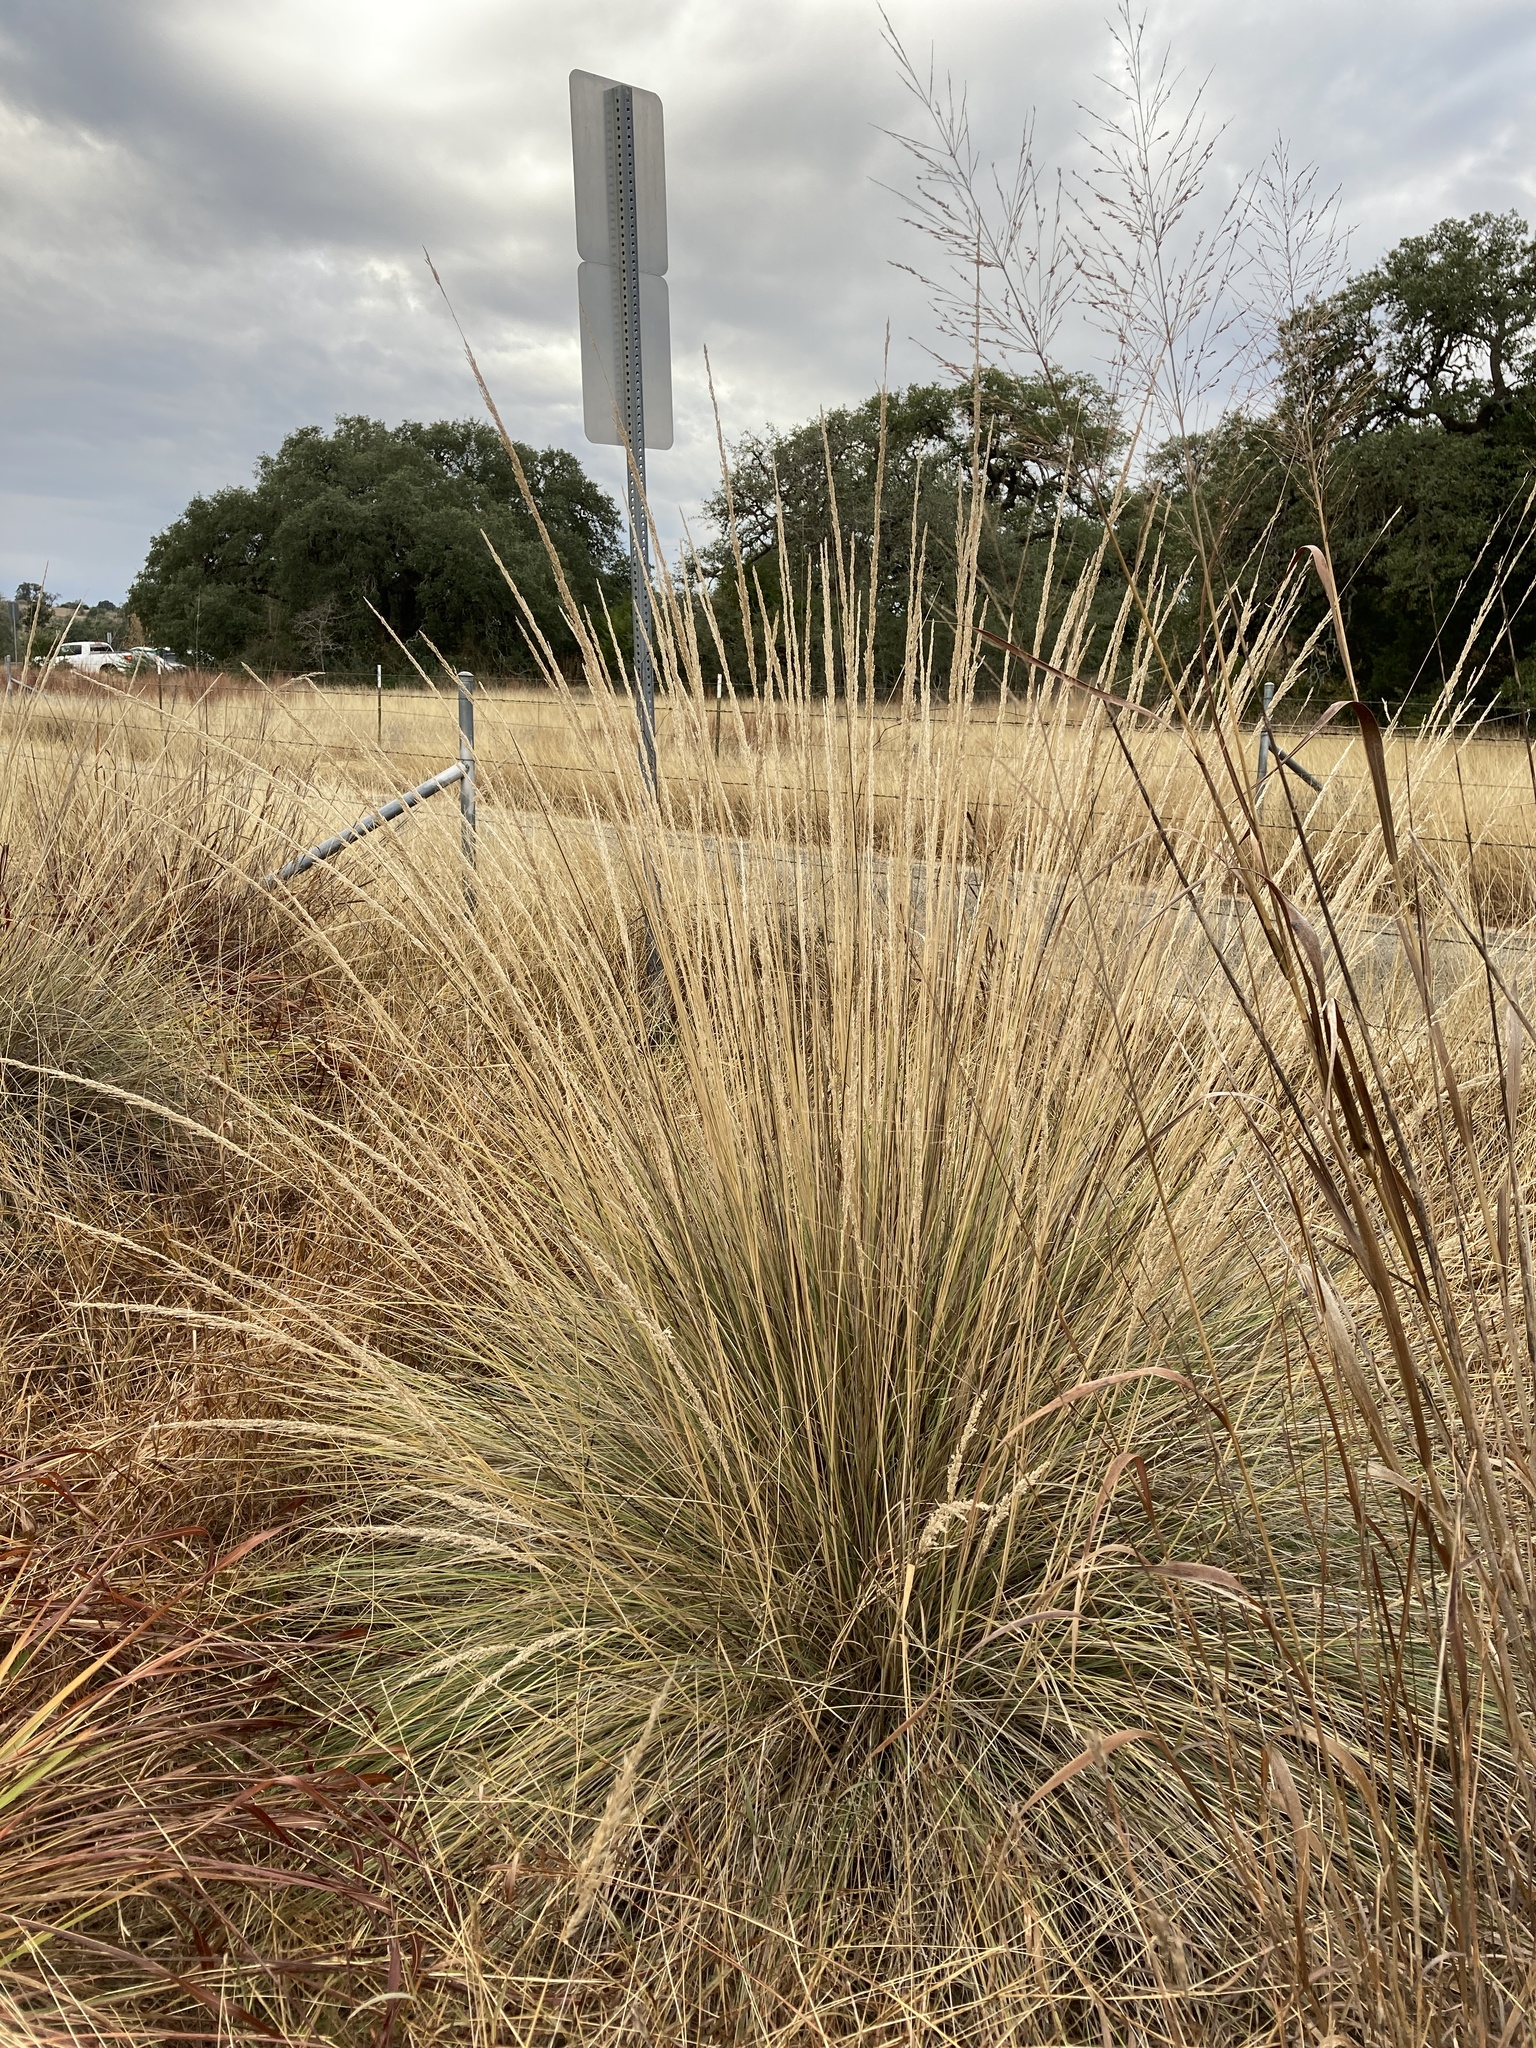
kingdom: Plantae
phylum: Tracheophyta
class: Liliopsida
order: Poales
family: Poaceae
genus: Muhlenbergia
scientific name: Muhlenbergia lindheimeri
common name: Lindheimer's muhly
